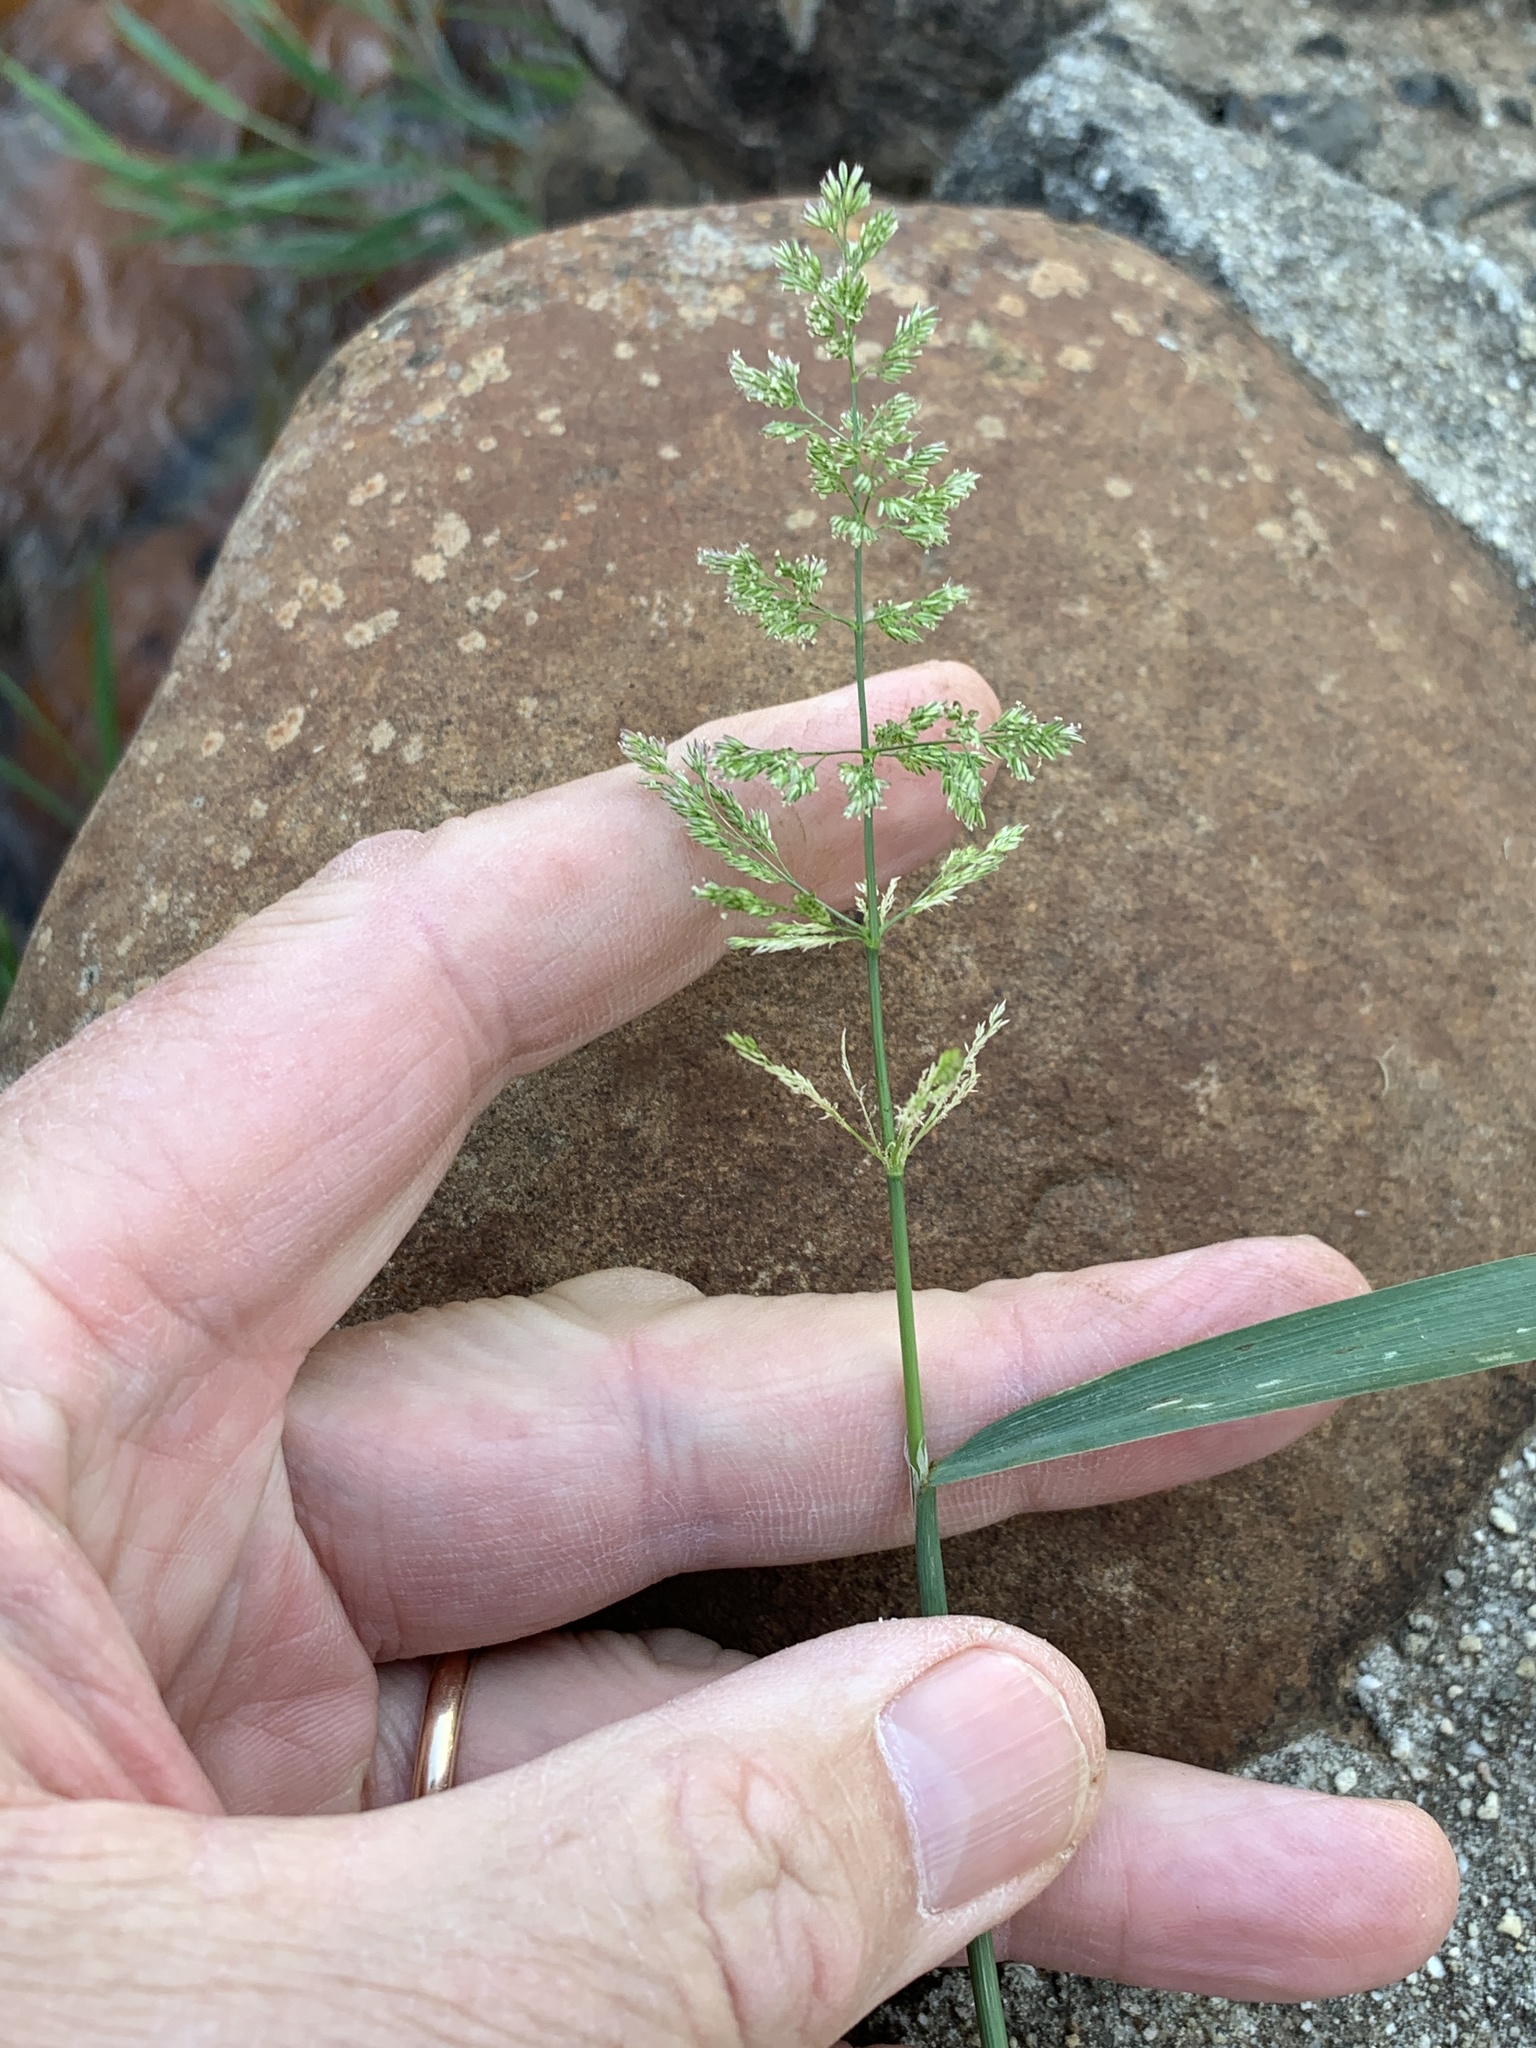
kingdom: Plantae
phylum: Tracheophyta
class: Liliopsida
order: Poales
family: Poaceae
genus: Polypogon
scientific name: Polypogon viridis
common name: Water bent
